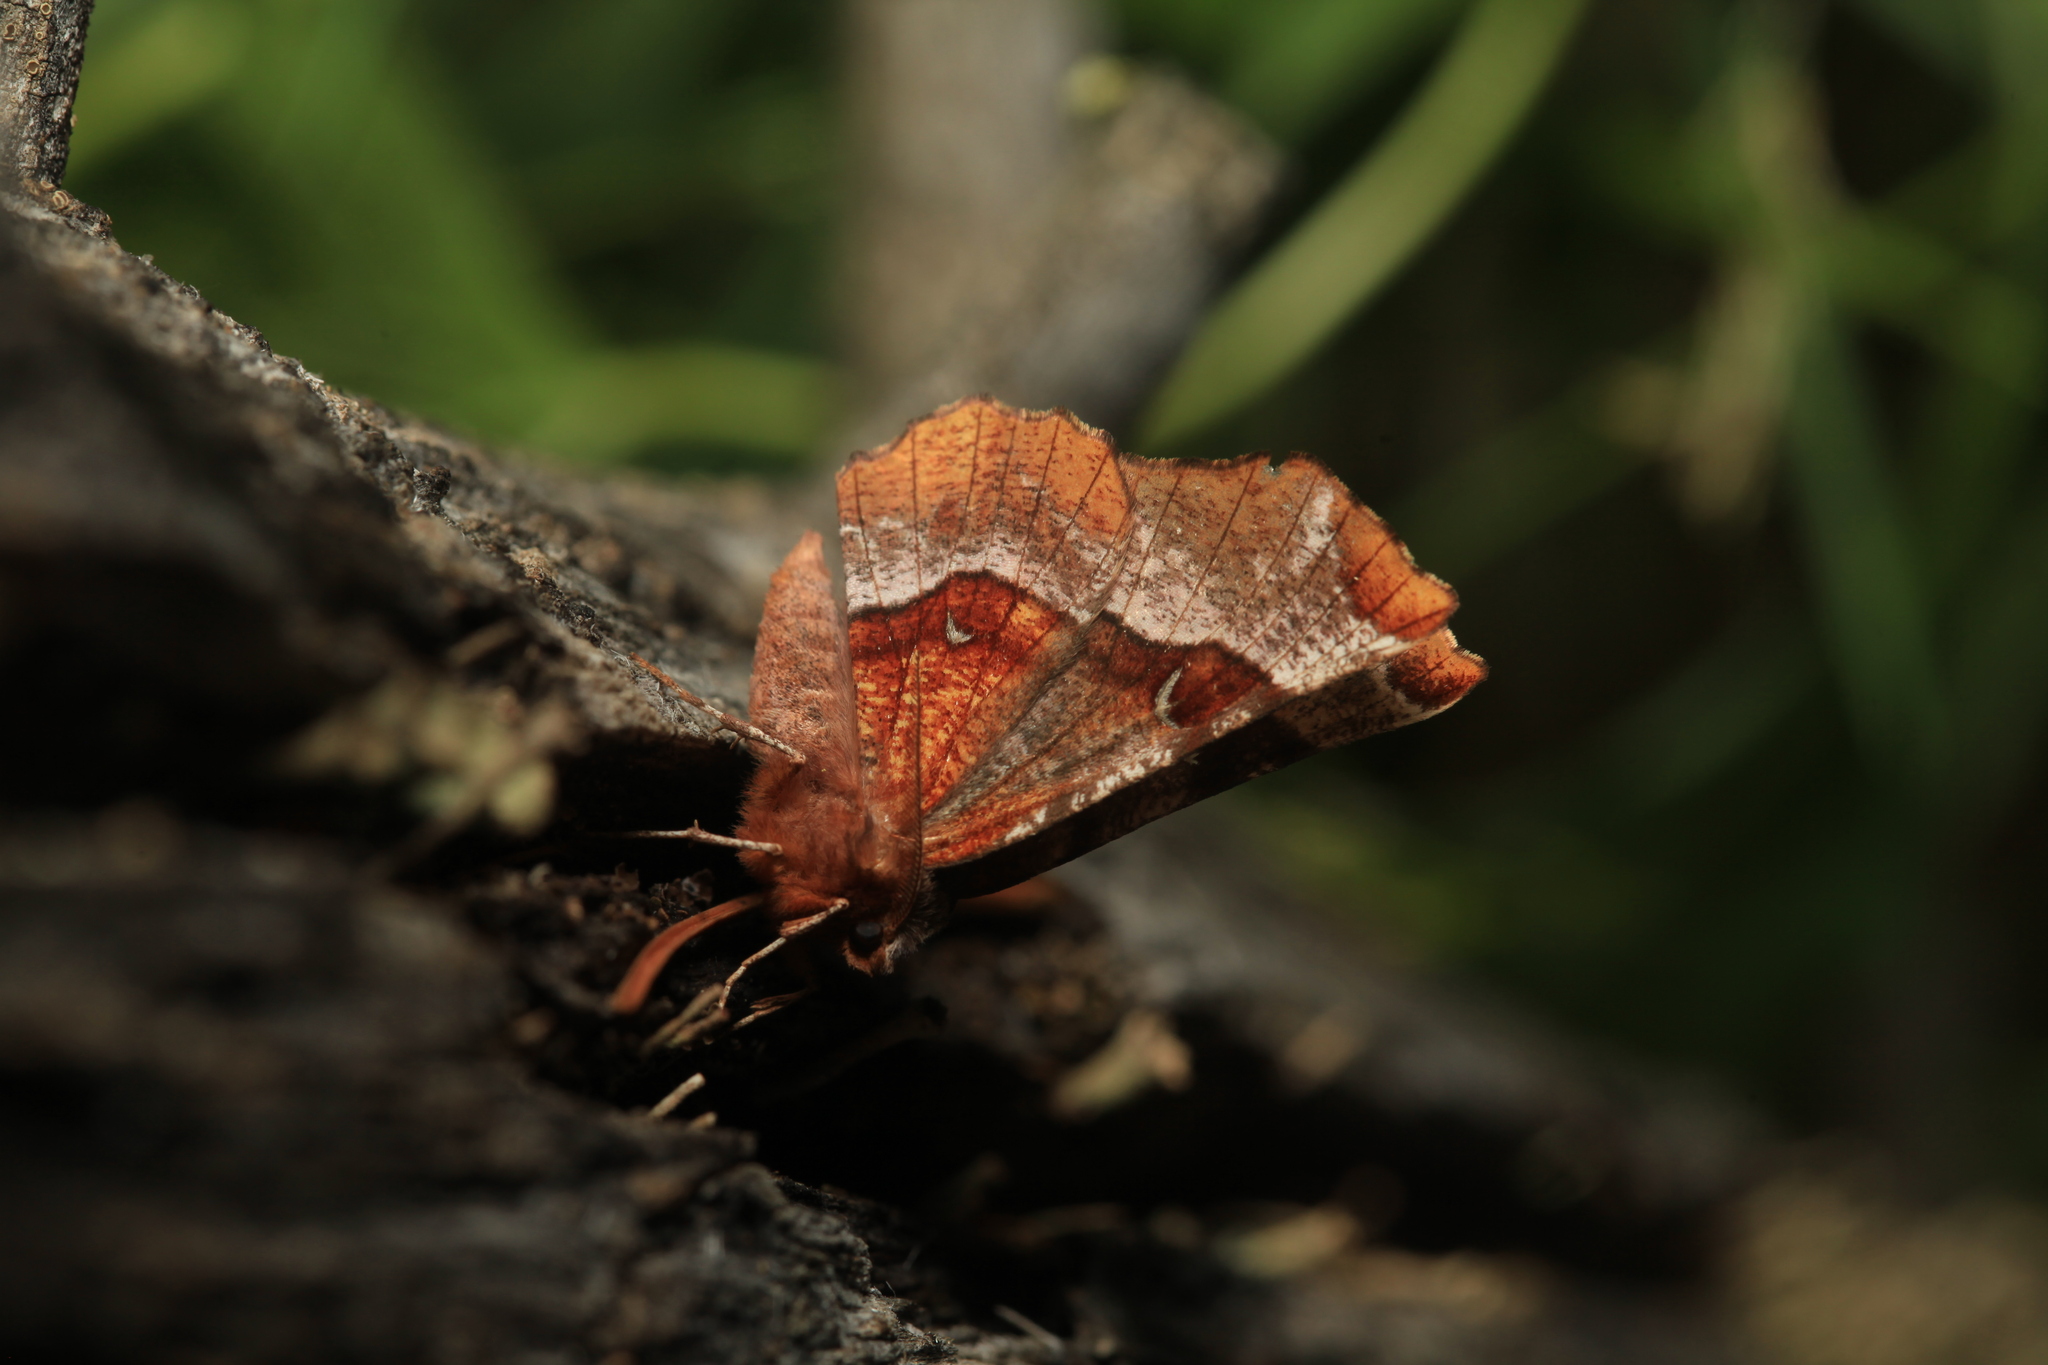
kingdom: Animalia
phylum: Arthropoda
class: Insecta
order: Lepidoptera
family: Geometridae
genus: Selenia
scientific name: Selenia tetralunaria
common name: Purple thorn
